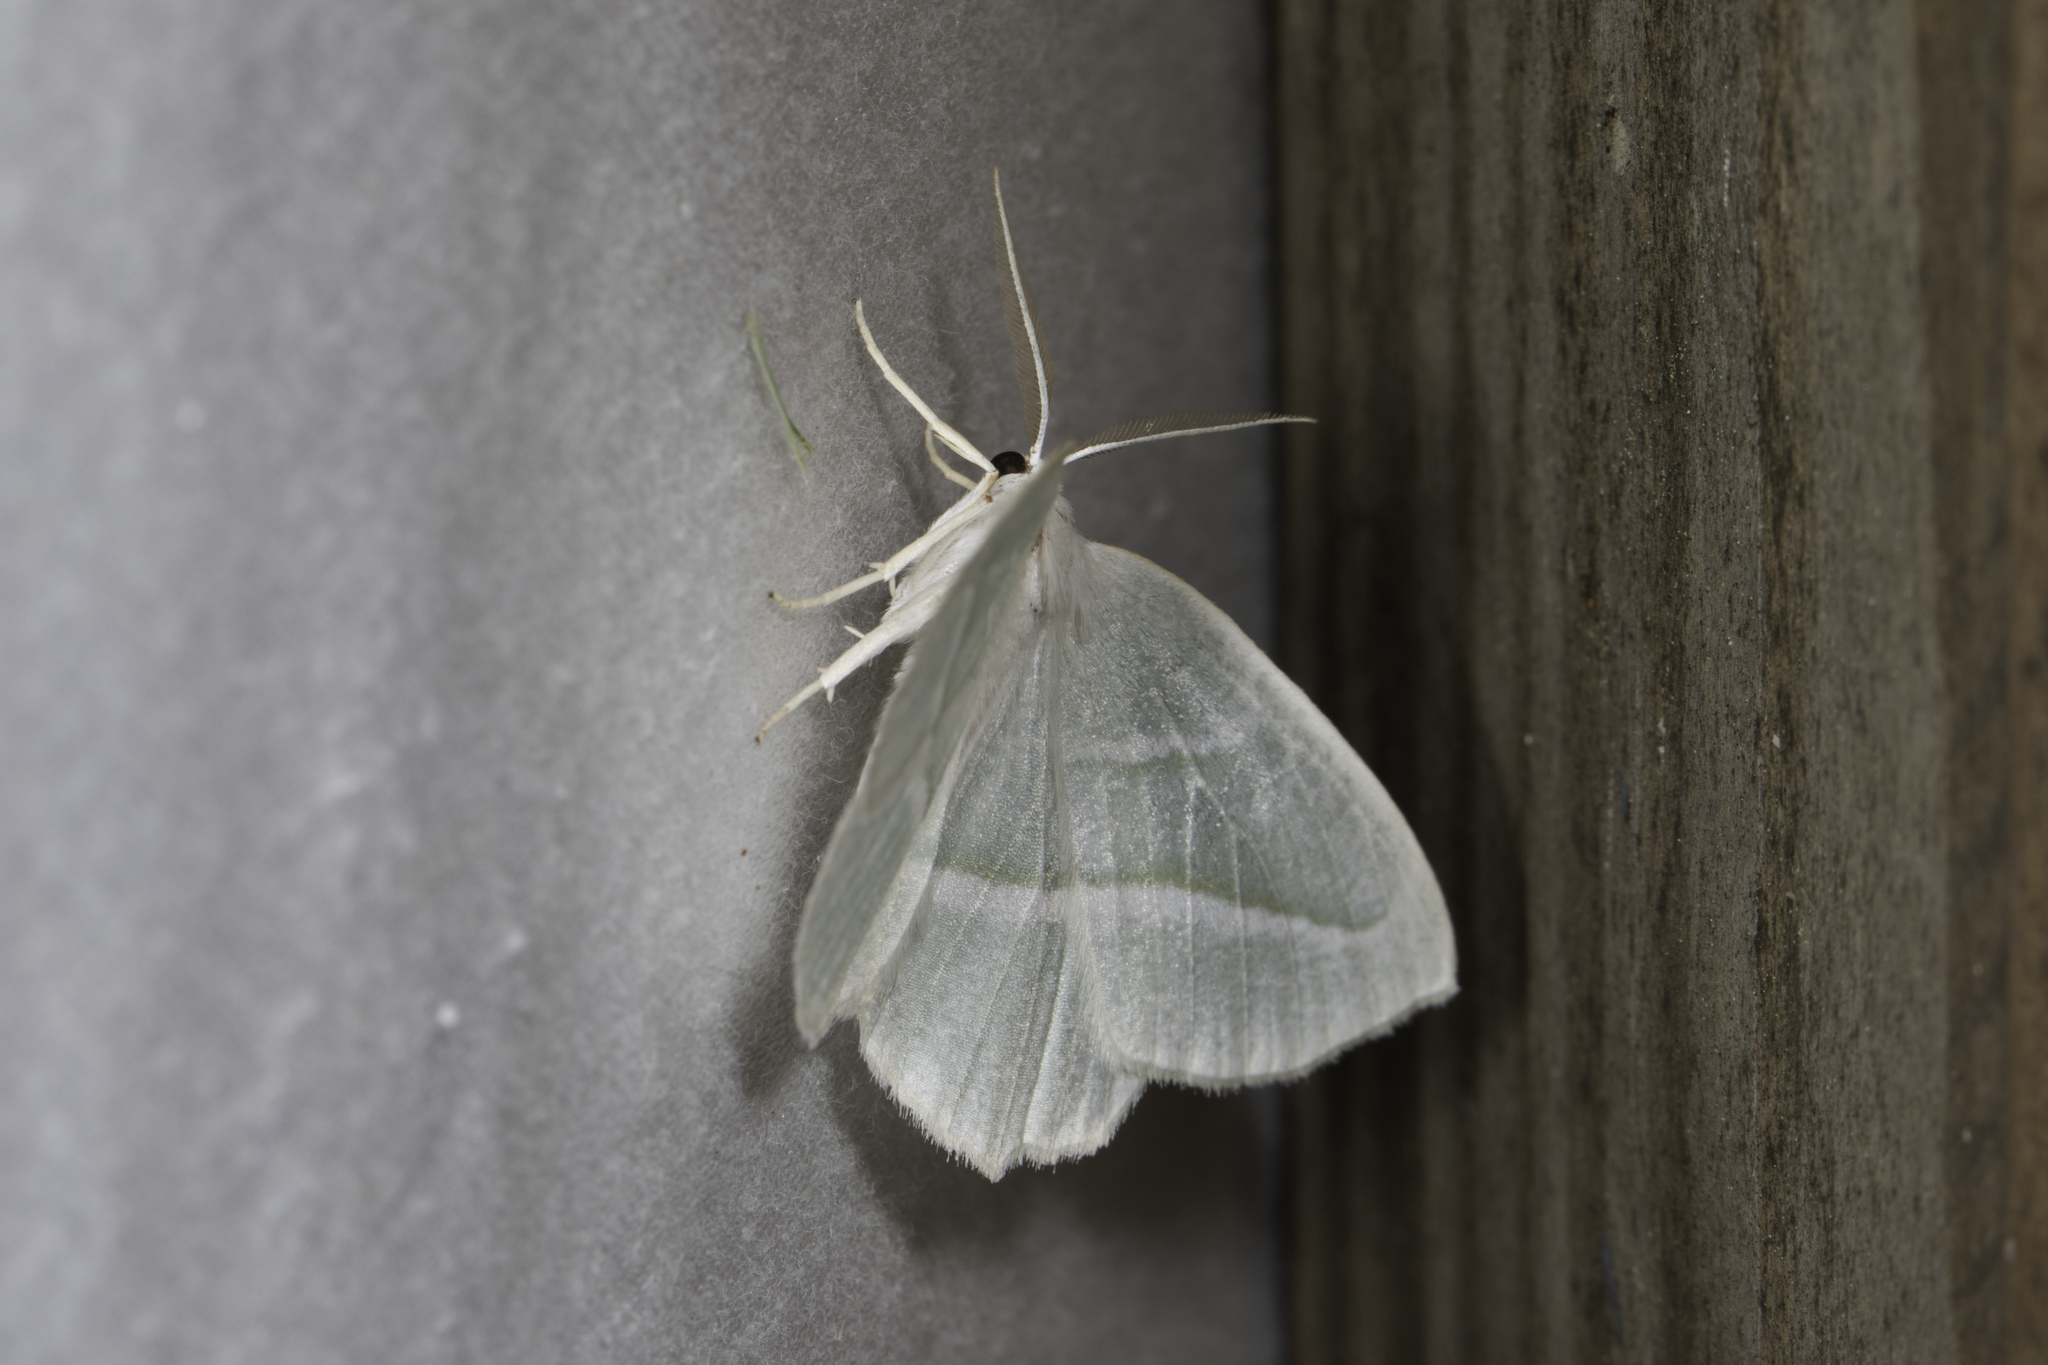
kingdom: Animalia
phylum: Arthropoda
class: Insecta
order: Lepidoptera
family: Geometridae
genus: Campaea
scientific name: Campaea perlata
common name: Fringed looper
